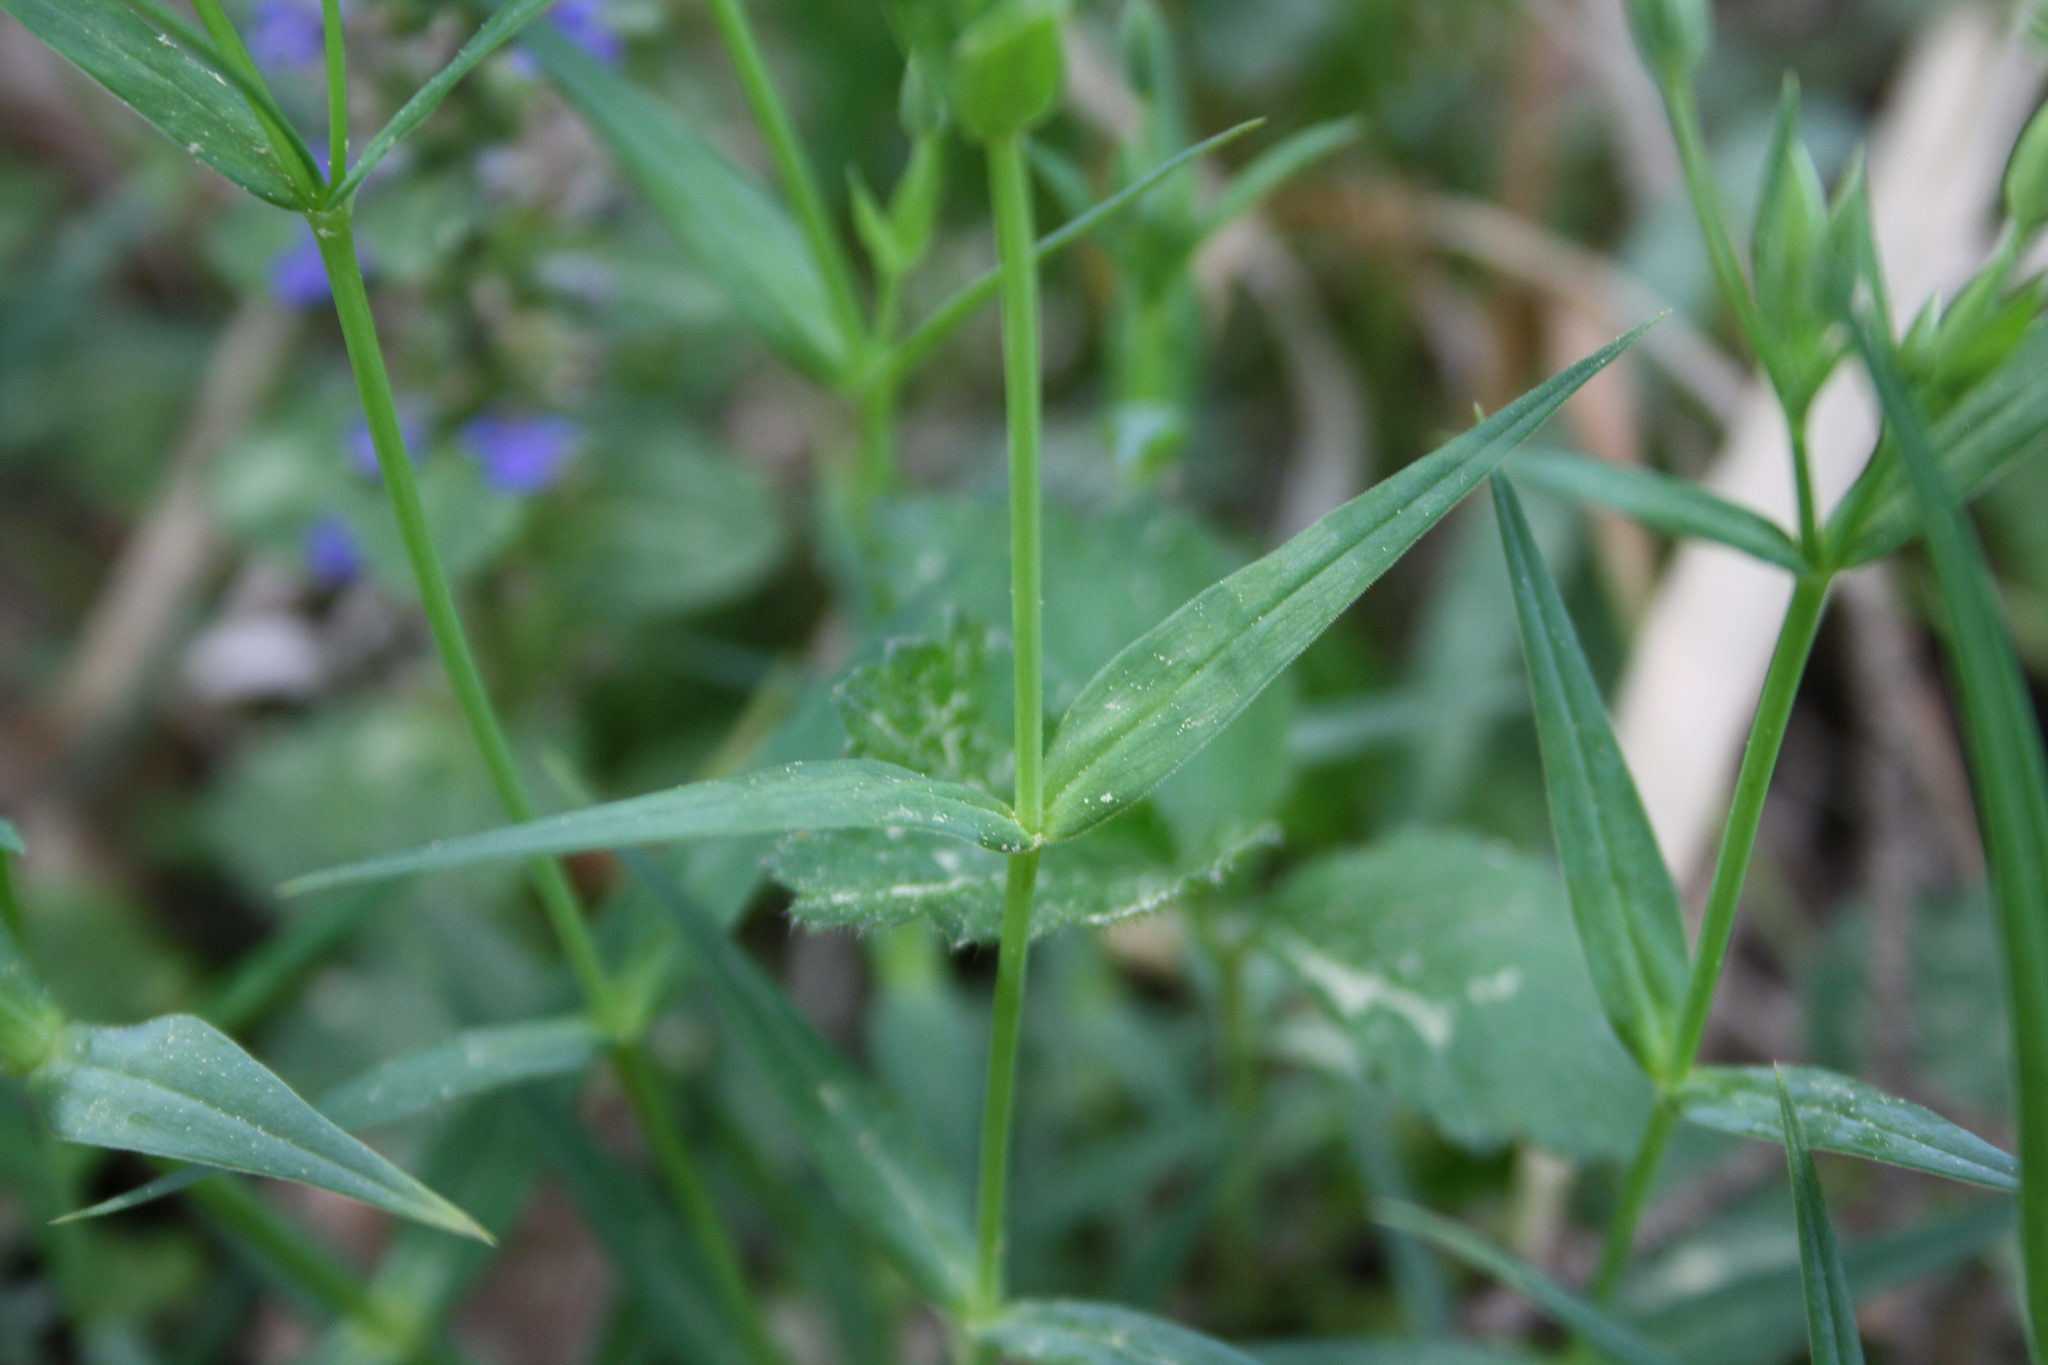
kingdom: Plantae
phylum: Tracheophyta
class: Magnoliopsida
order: Caryophyllales
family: Caryophyllaceae
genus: Rabelera
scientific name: Rabelera holostea
